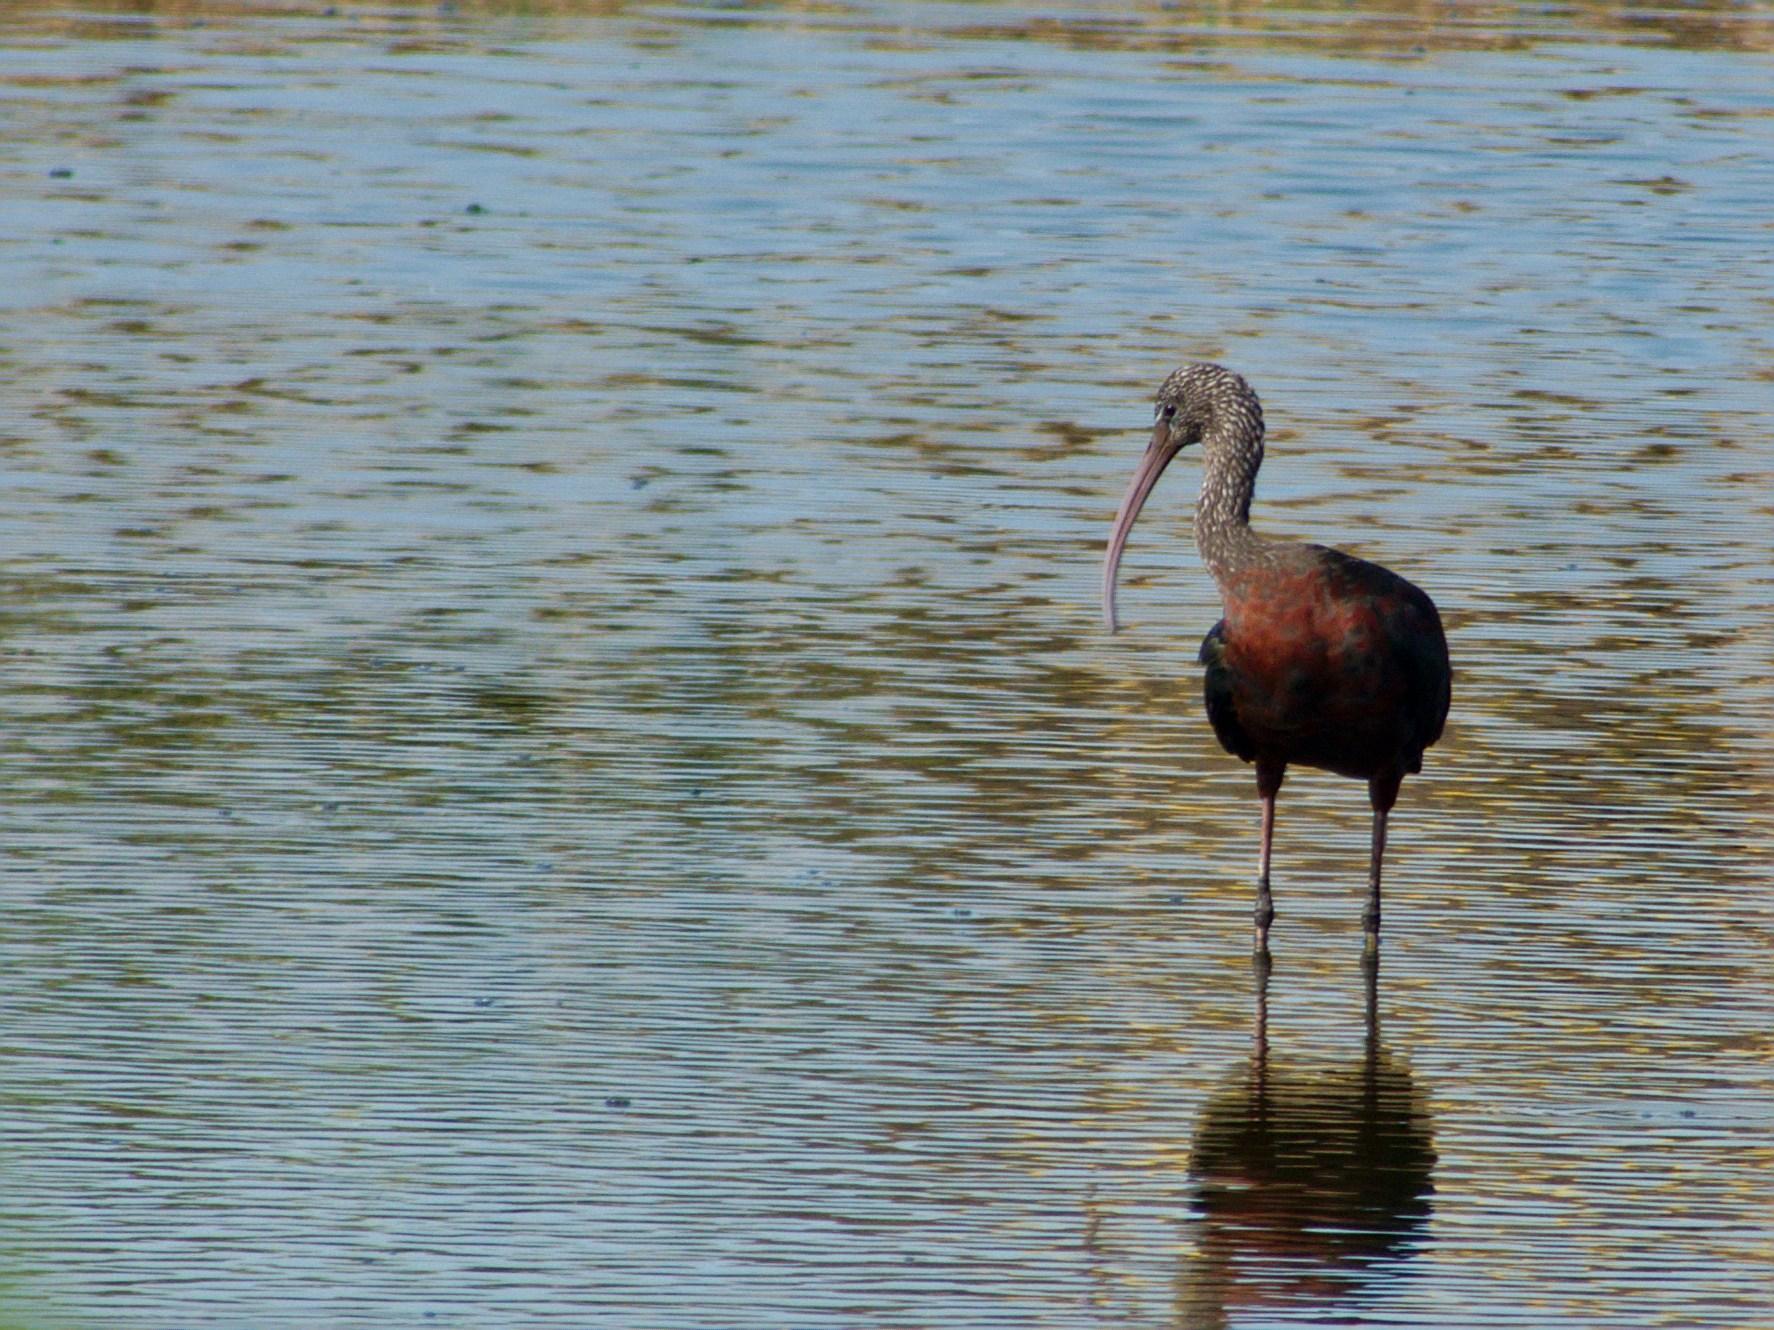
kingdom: Animalia
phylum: Chordata
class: Aves
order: Pelecaniformes
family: Threskiornithidae
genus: Plegadis
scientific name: Plegadis falcinellus
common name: Glossy ibis
